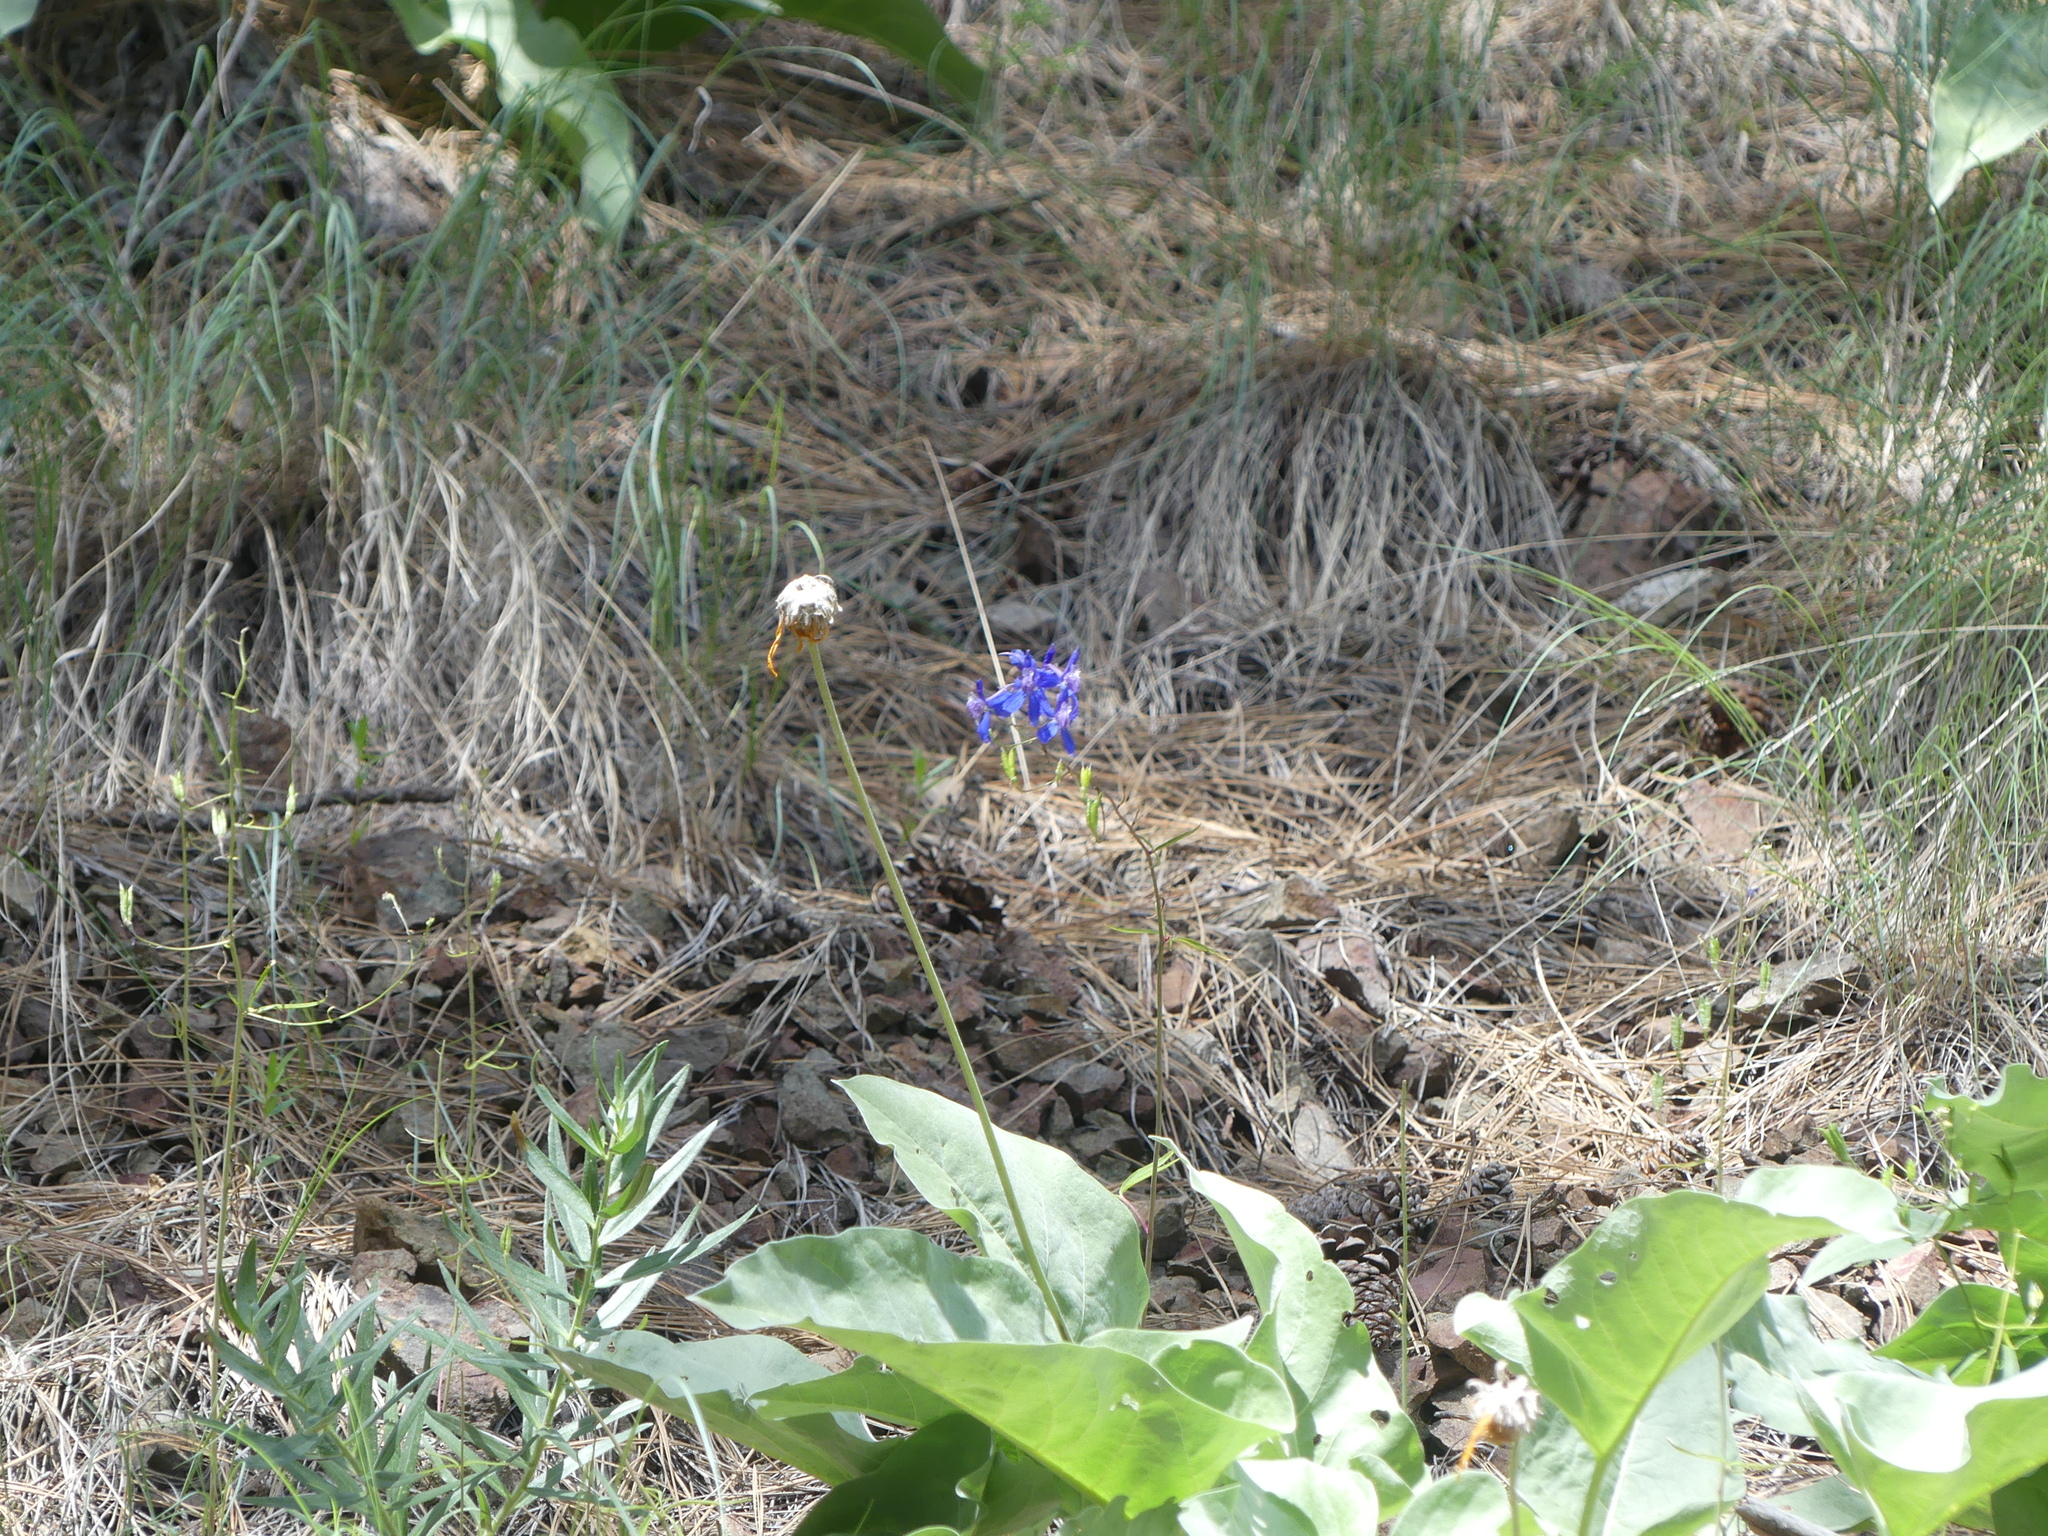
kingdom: Plantae
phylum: Tracheophyta
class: Magnoliopsida
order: Ranunculales
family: Ranunculaceae
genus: Delphinium
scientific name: Delphinium nuttallianum
